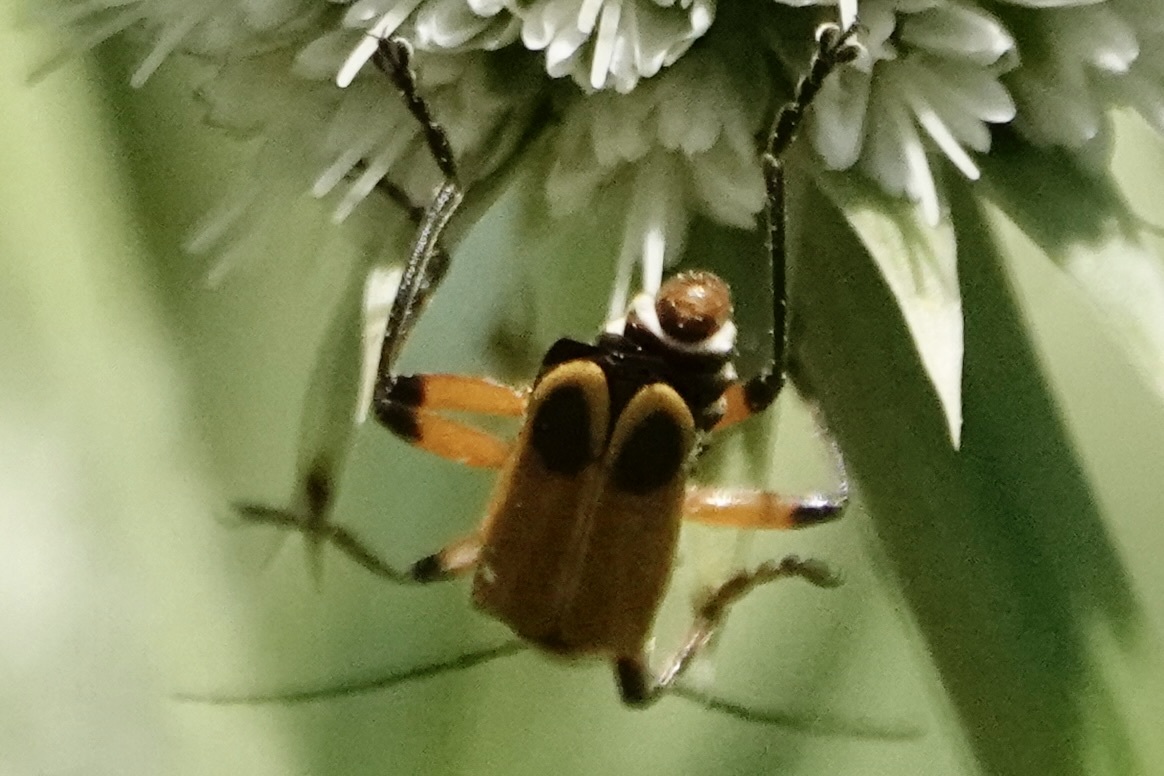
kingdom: Animalia
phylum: Arthropoda
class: Insecta
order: Coleoptera
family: Cantharidae
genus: Chauliognathus
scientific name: Chauliognathus marginatus
